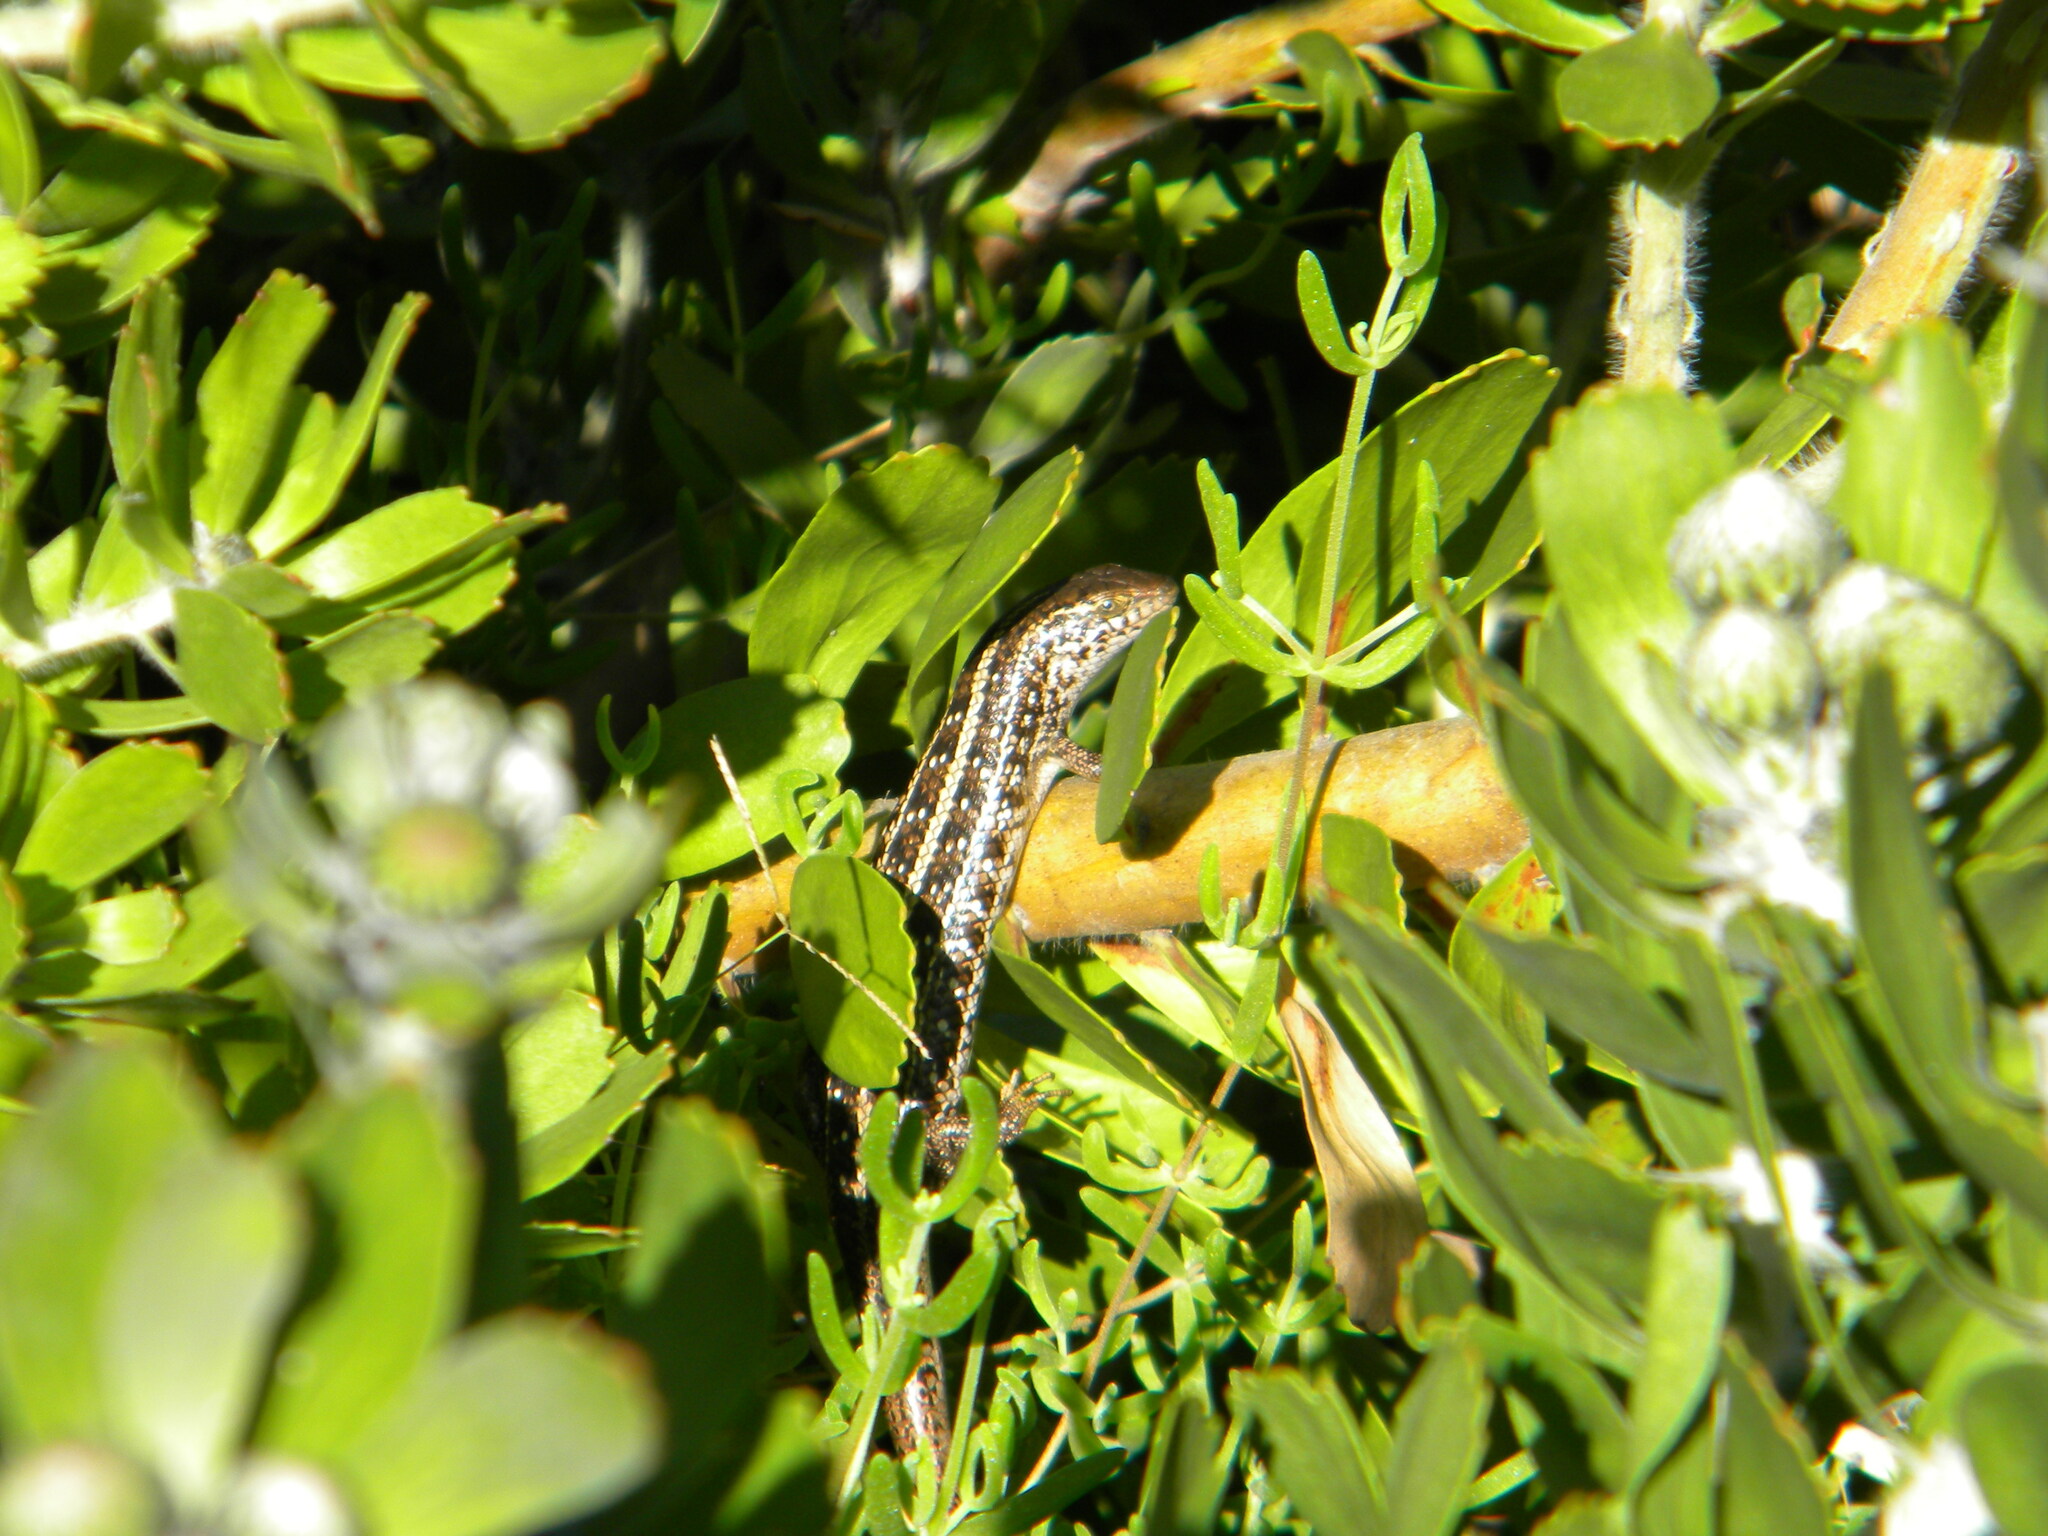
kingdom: Animalia
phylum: Chordata
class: Squamata
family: Scincidae
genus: Trachylepis
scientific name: Trachylepis capensis
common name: Cape skink
